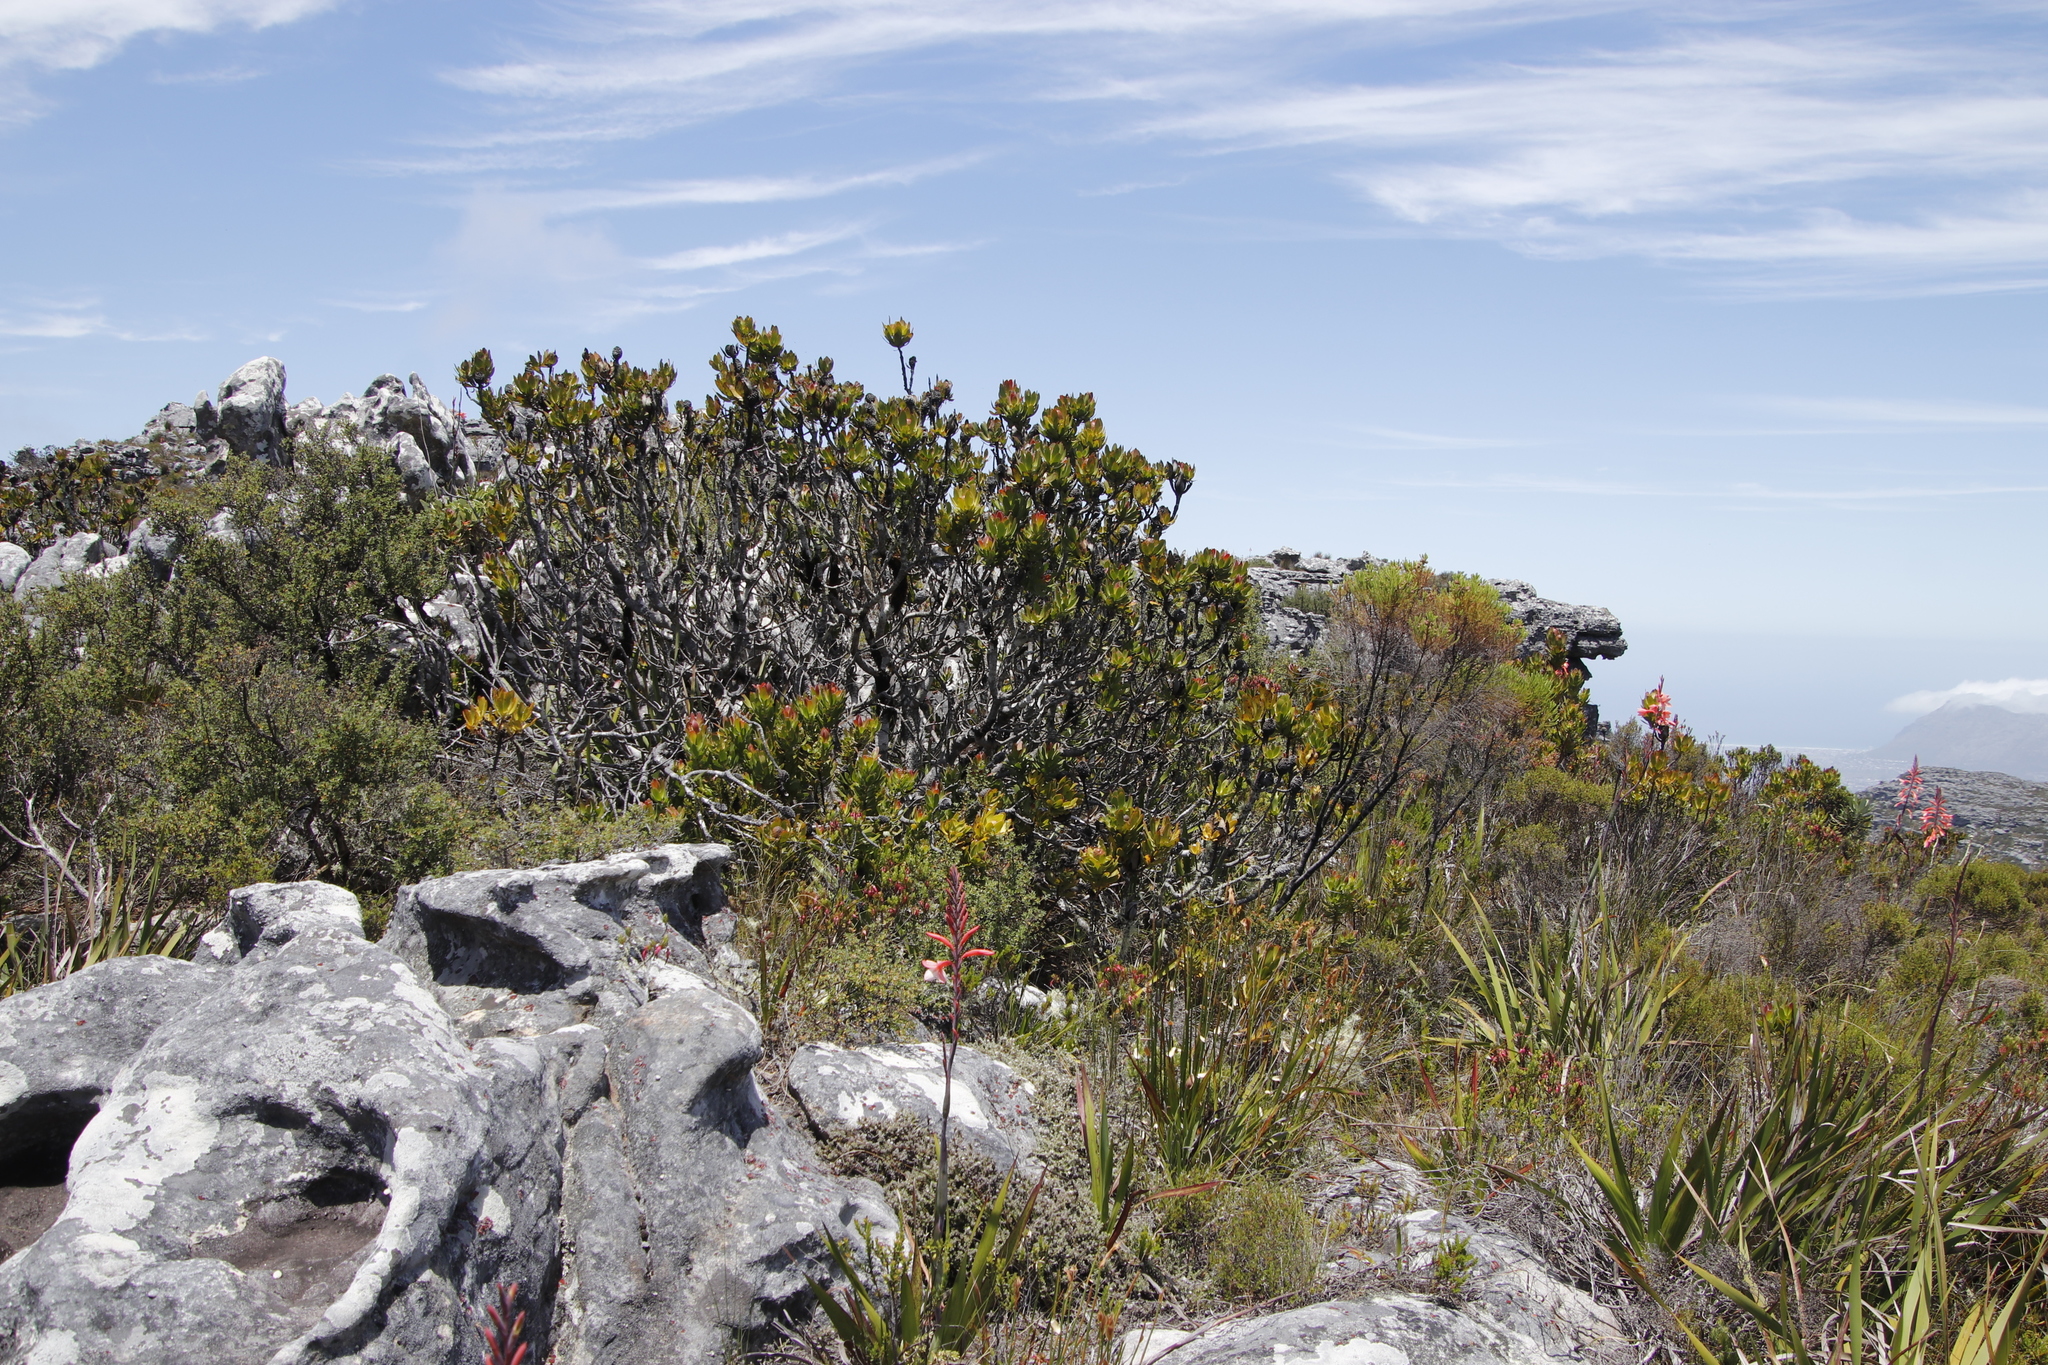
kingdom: Plantae
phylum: Tracheophyta
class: Magnoliopsida
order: Proteales
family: Proteaceae
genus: Leucadendron
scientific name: Leucadendron strobilinum
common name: Mountain rose
